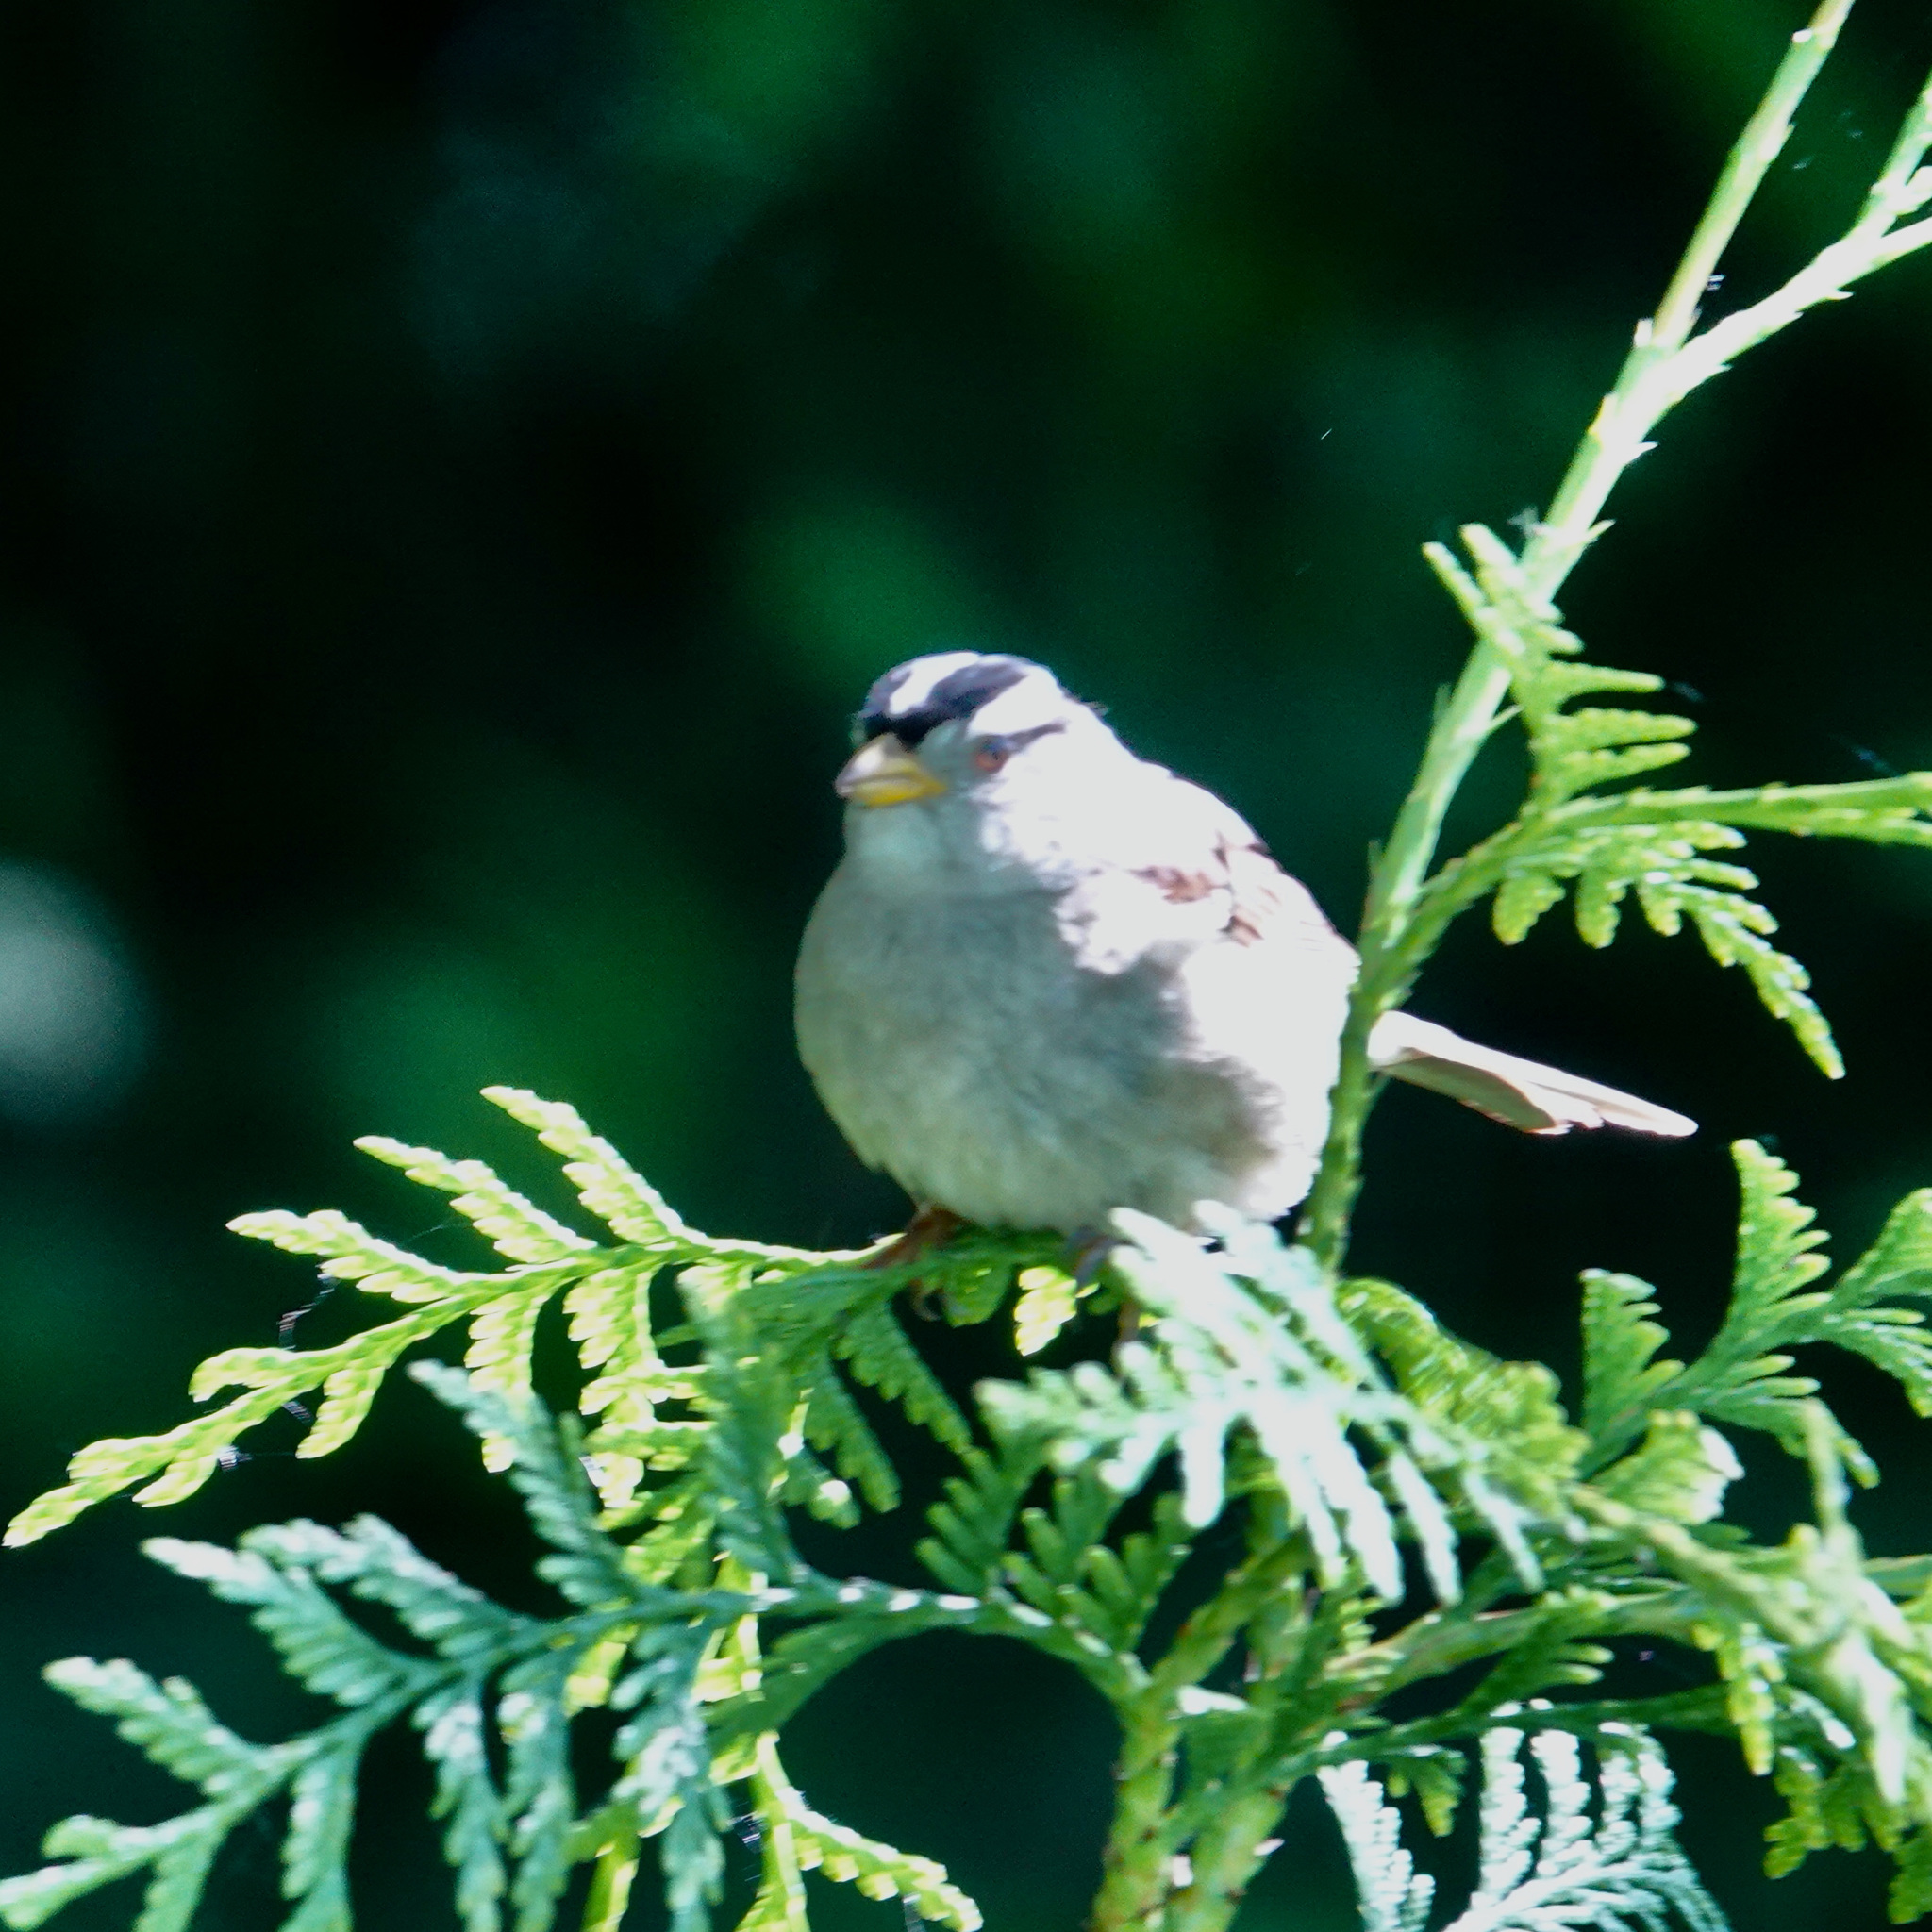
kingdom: Animalia
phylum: Chordata
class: Aves
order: Passeriformes
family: Passerellidae
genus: Zonotrichia
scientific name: Zonotrichia leucophrys
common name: White-crowned sparrow
